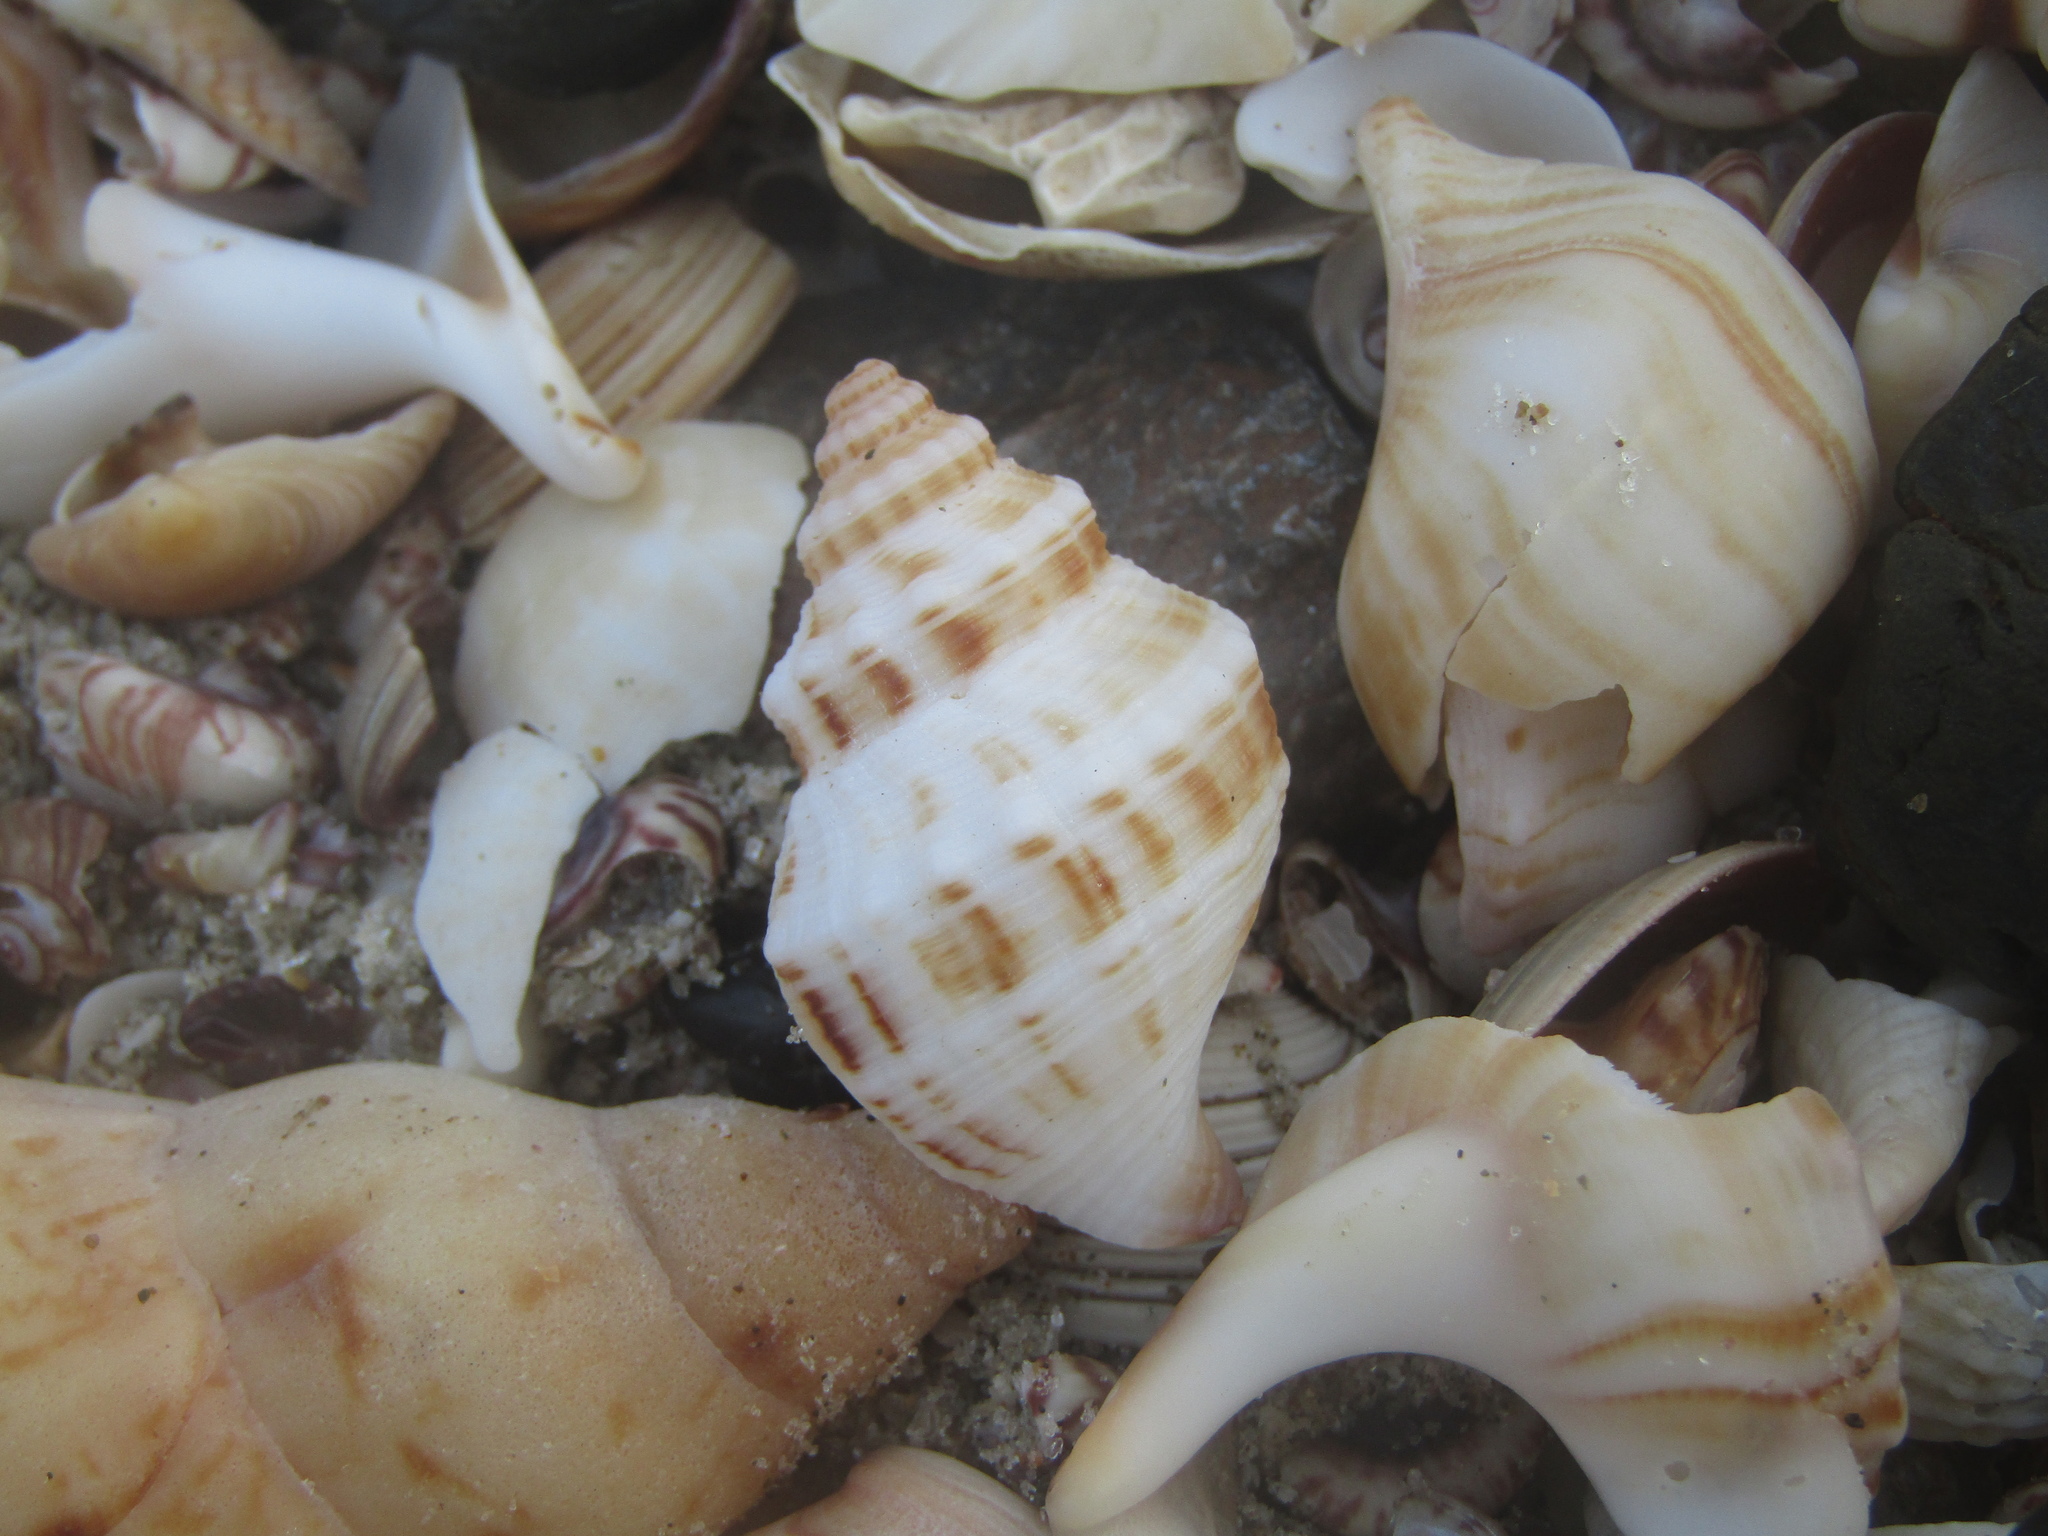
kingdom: Animalia
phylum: Mollusca
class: Gastropoda
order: Neogastropoda
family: Prosiphonidae
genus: Austrofusus
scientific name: Austrofusus glans
